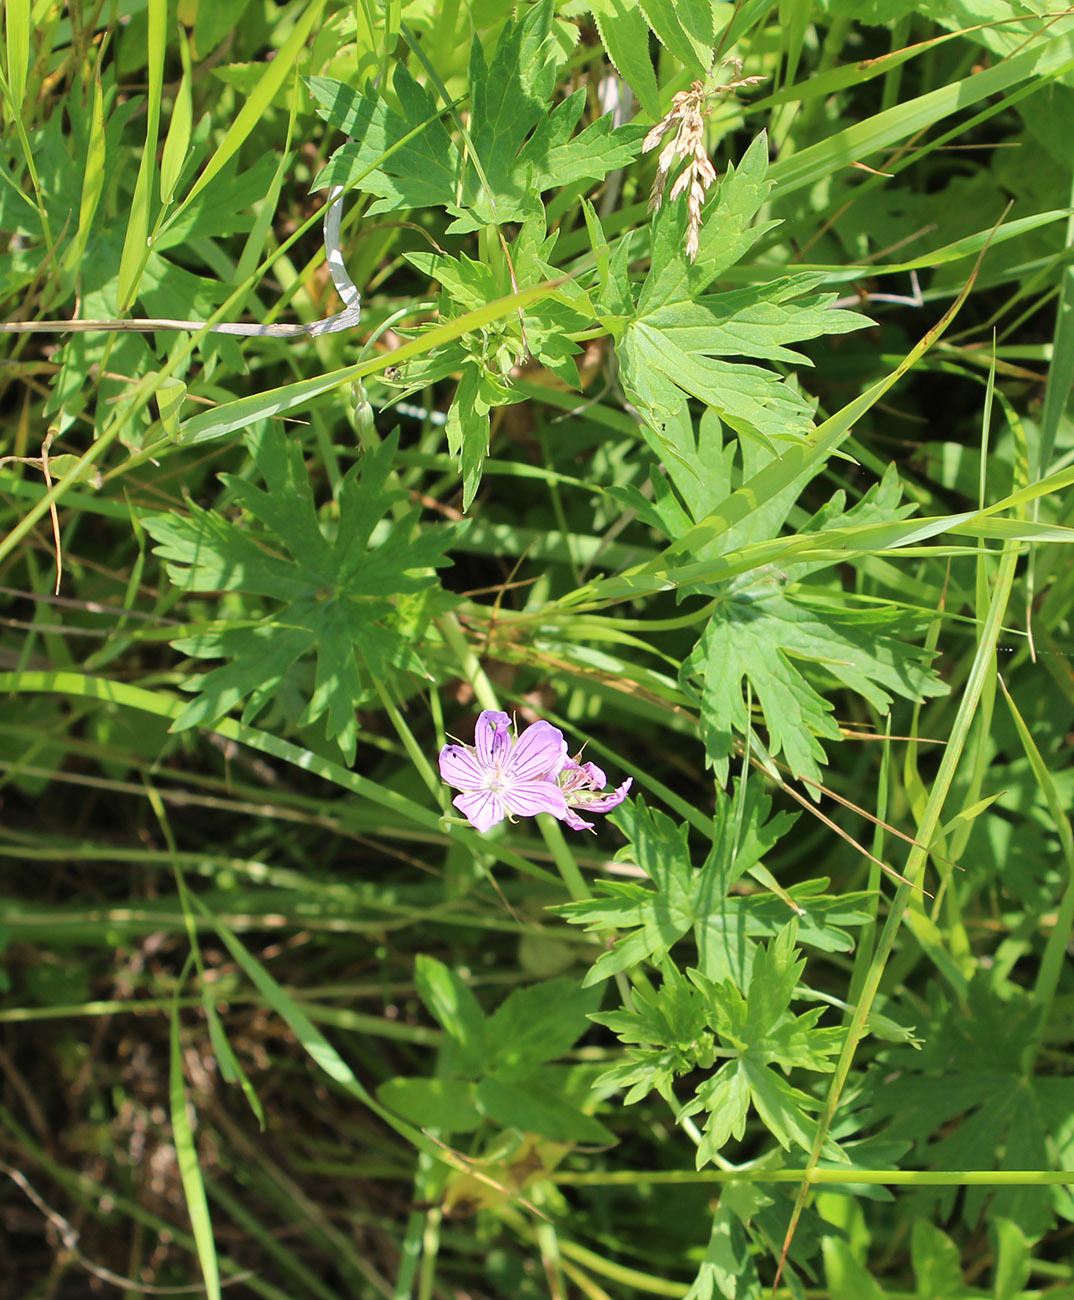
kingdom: Plantae
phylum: Tracheophyta
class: Magnoliopsida
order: Geraniales
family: Geraniaceae
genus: Geranium
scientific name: Geranium collinum
